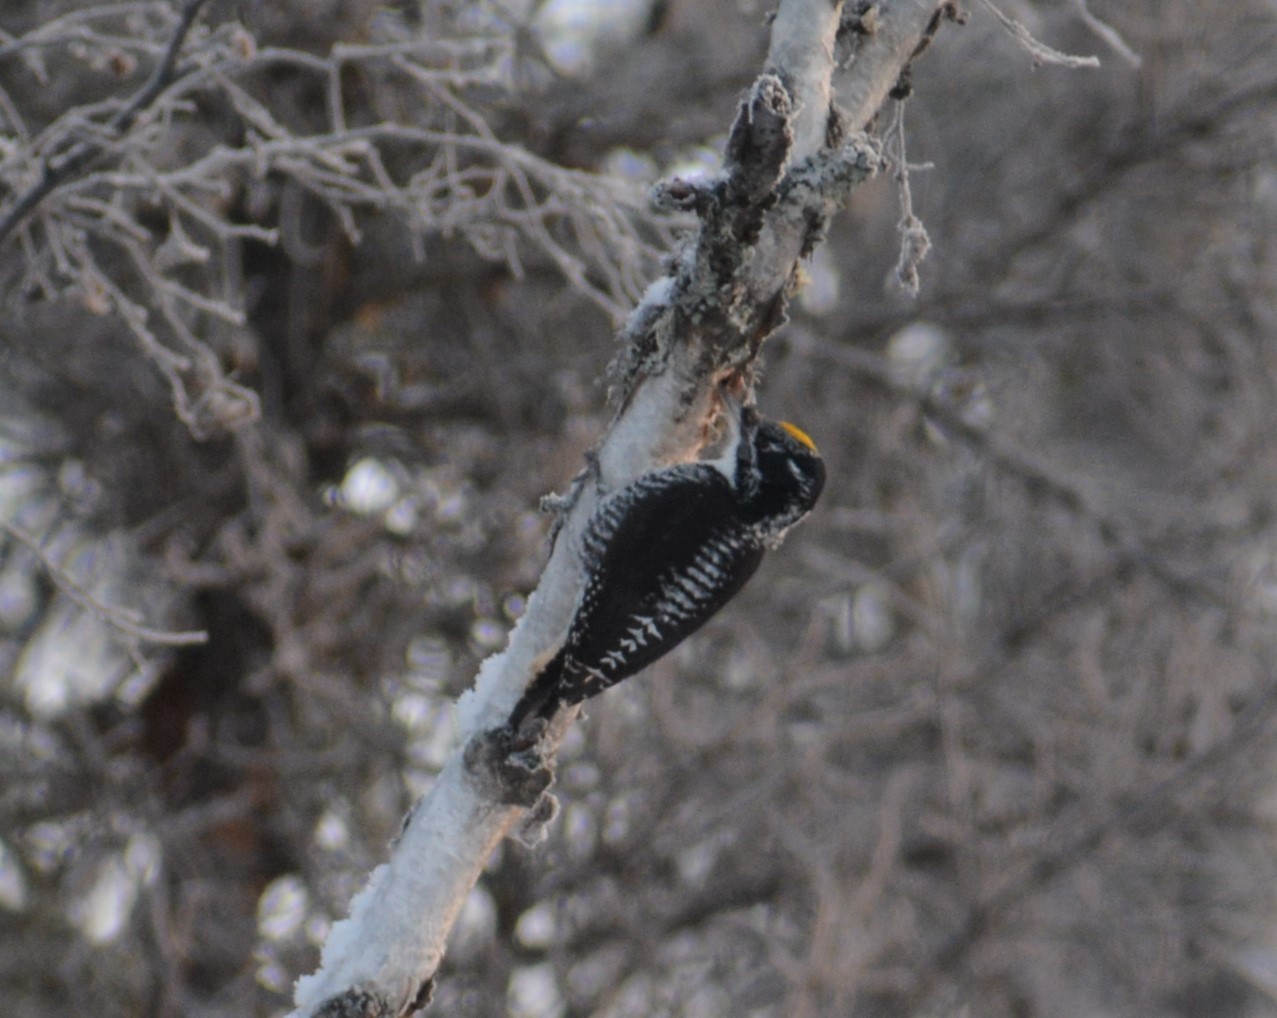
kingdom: Animalia
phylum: Chordata
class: Aves
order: Piciformes
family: Picidae
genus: Picoides
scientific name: Picoides dorsalis
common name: American three-toed woodpecker
